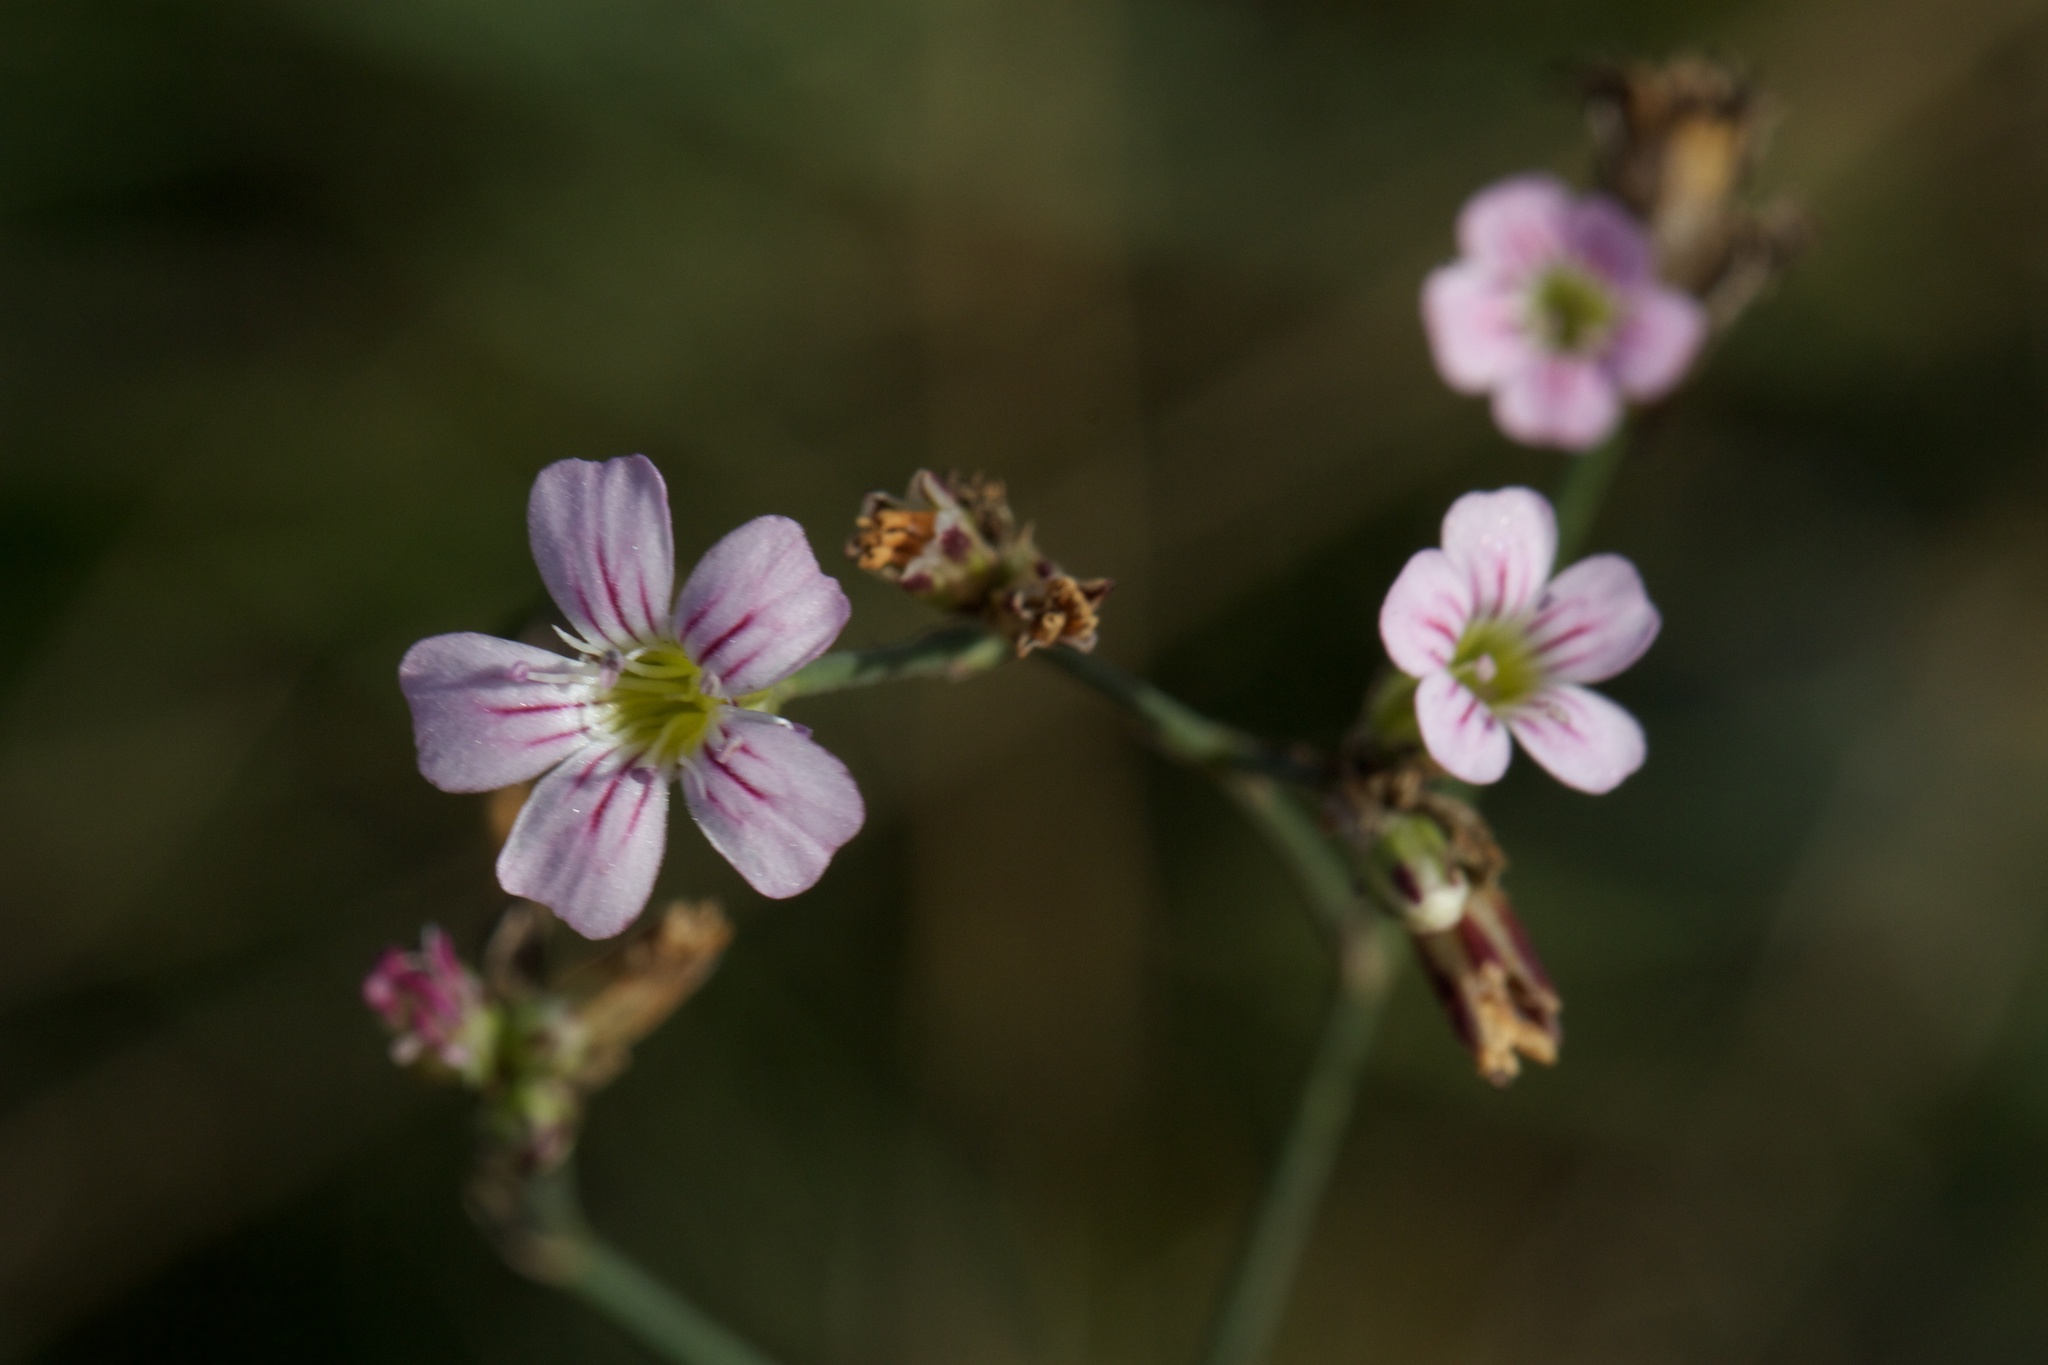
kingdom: Plantae
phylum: Tracheophyta
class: Magnoliopsida
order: Caryophyllales
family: Caryophyllaceae
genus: Petrorhagia
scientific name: Petrorhagia saxifraga
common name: Tunicflower
